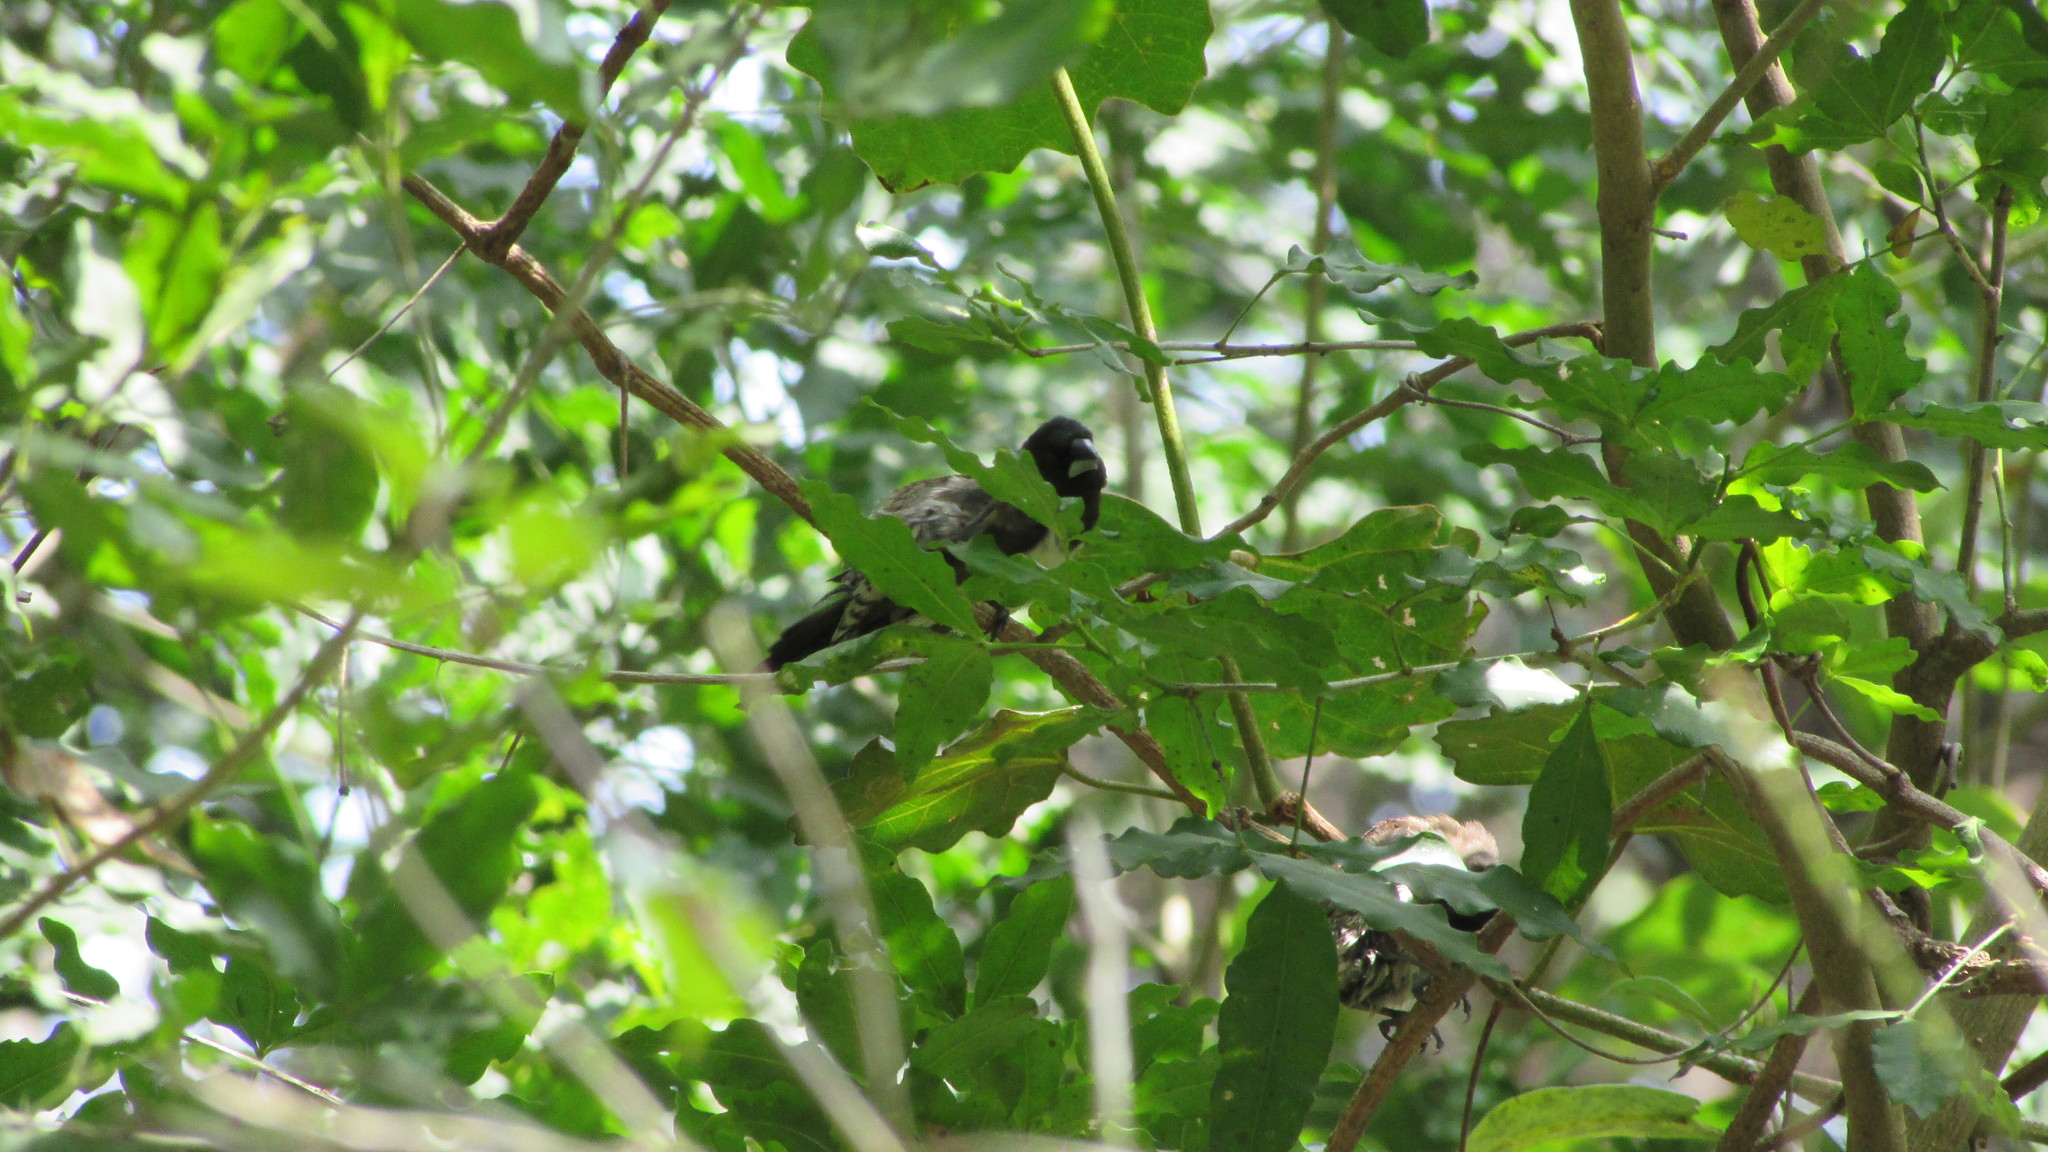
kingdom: Animalia
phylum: Chordata
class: Aves
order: Passeriformes
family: Estrildidae
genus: Lonchura
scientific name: Lonchura cucullata
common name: Bronze mannikin
